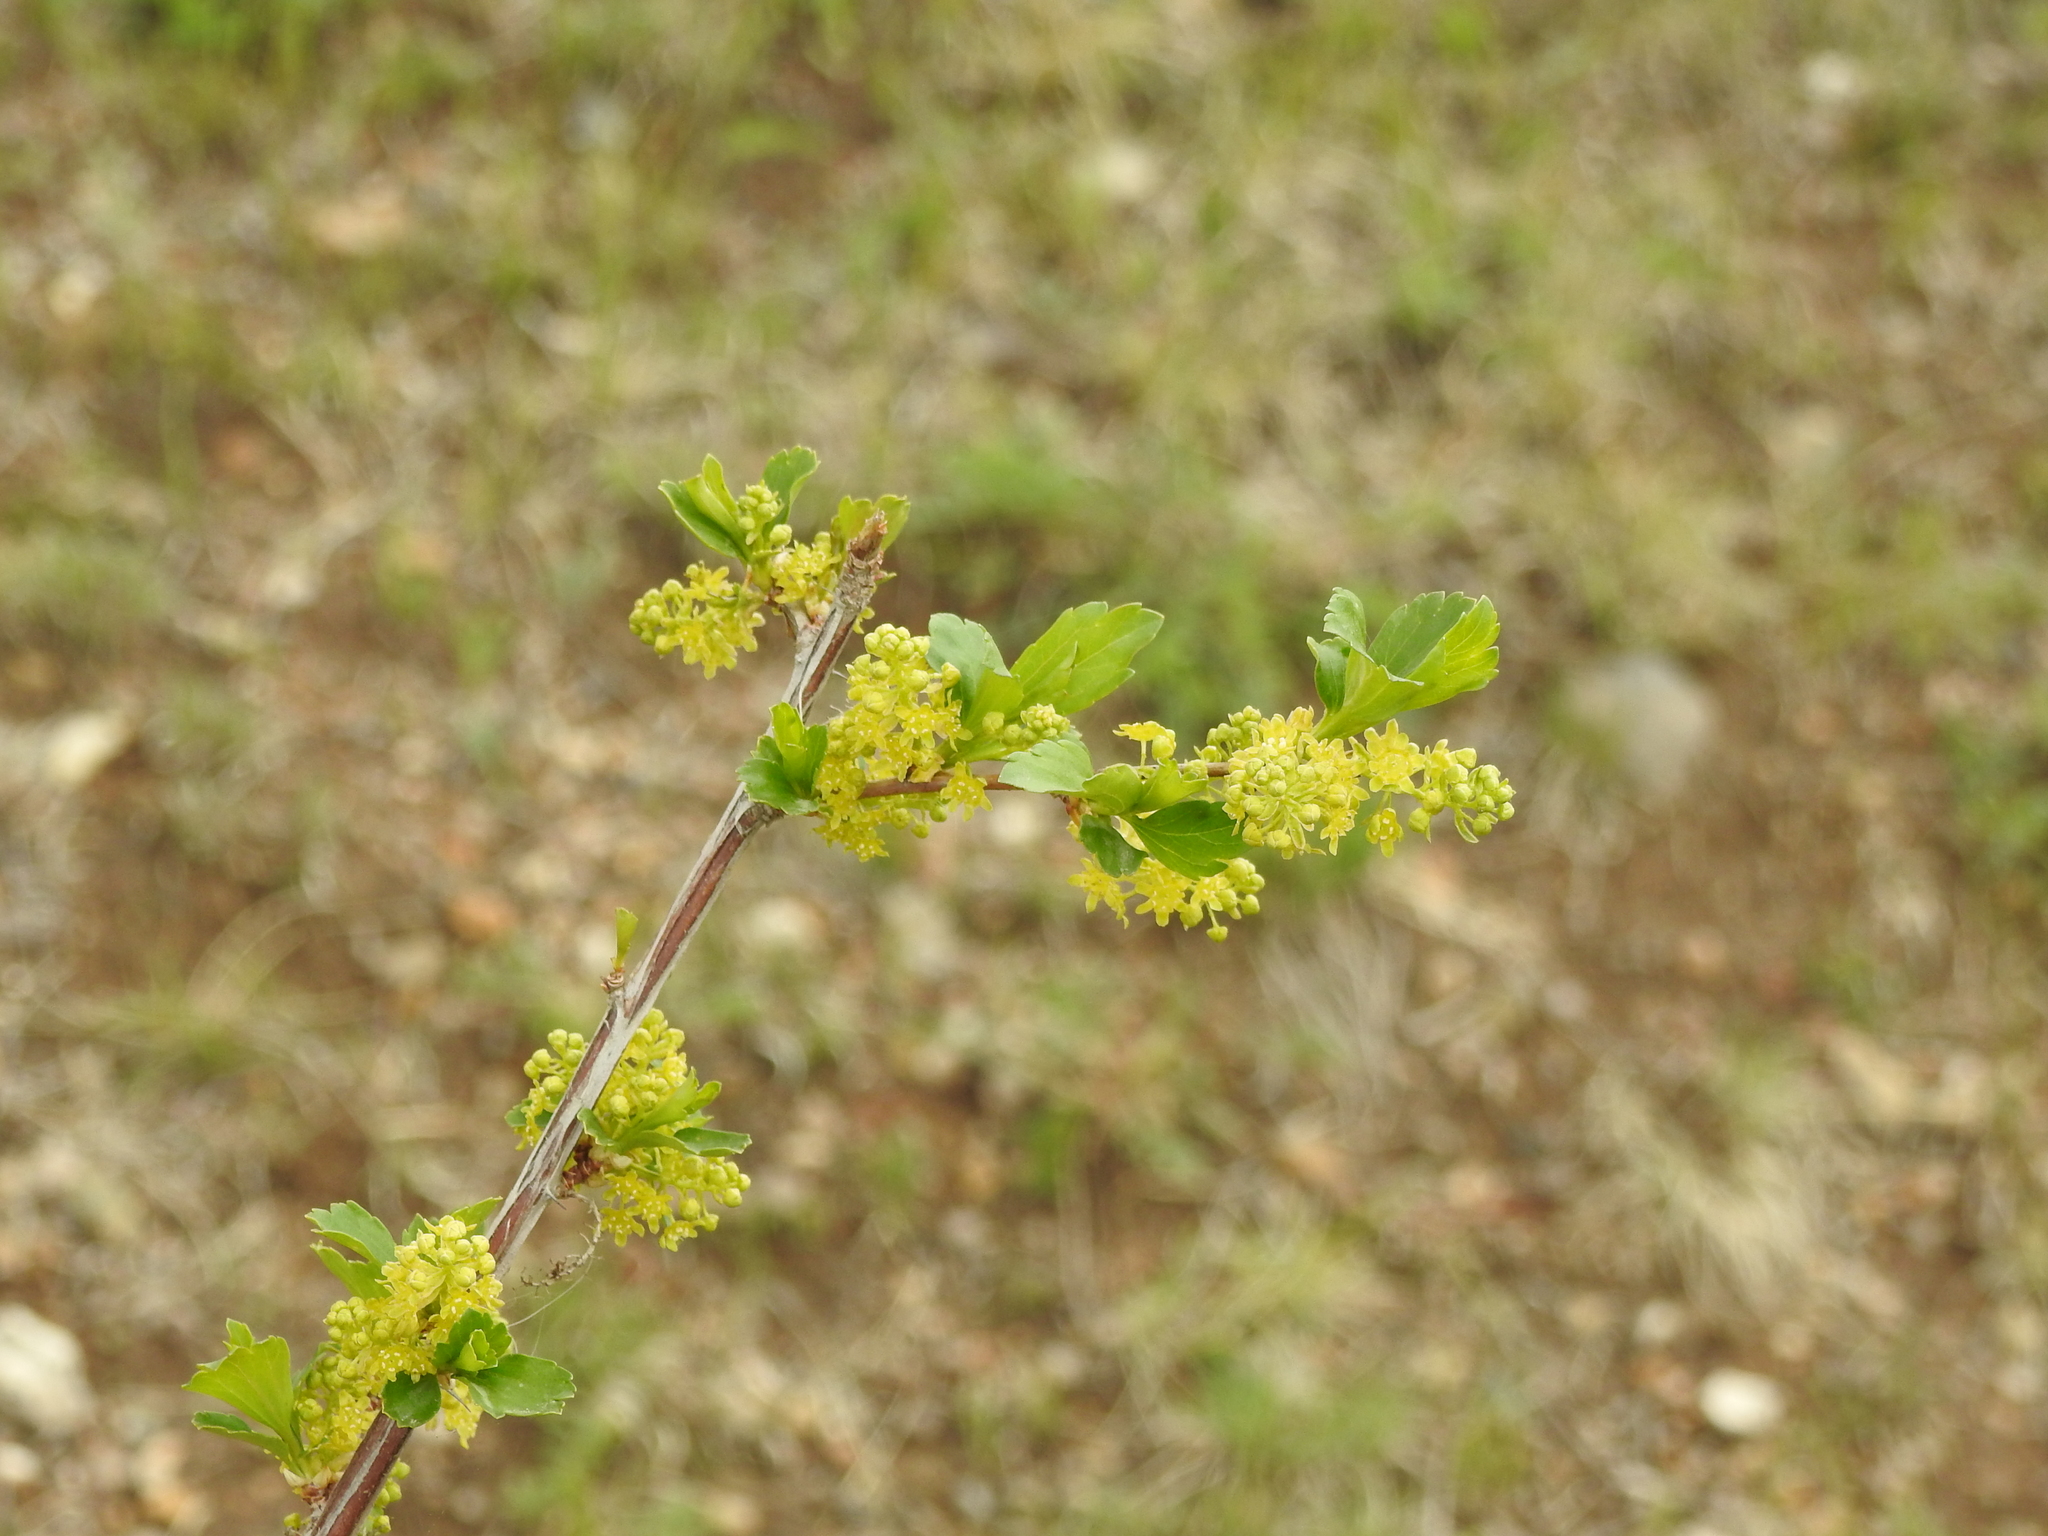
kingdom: Plantae
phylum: Tracheophyta
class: Magnoliopsida
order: Saxifragales
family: Grossulariaceae
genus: Ribes
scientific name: Ribes diacanthum
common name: Siberian currant
